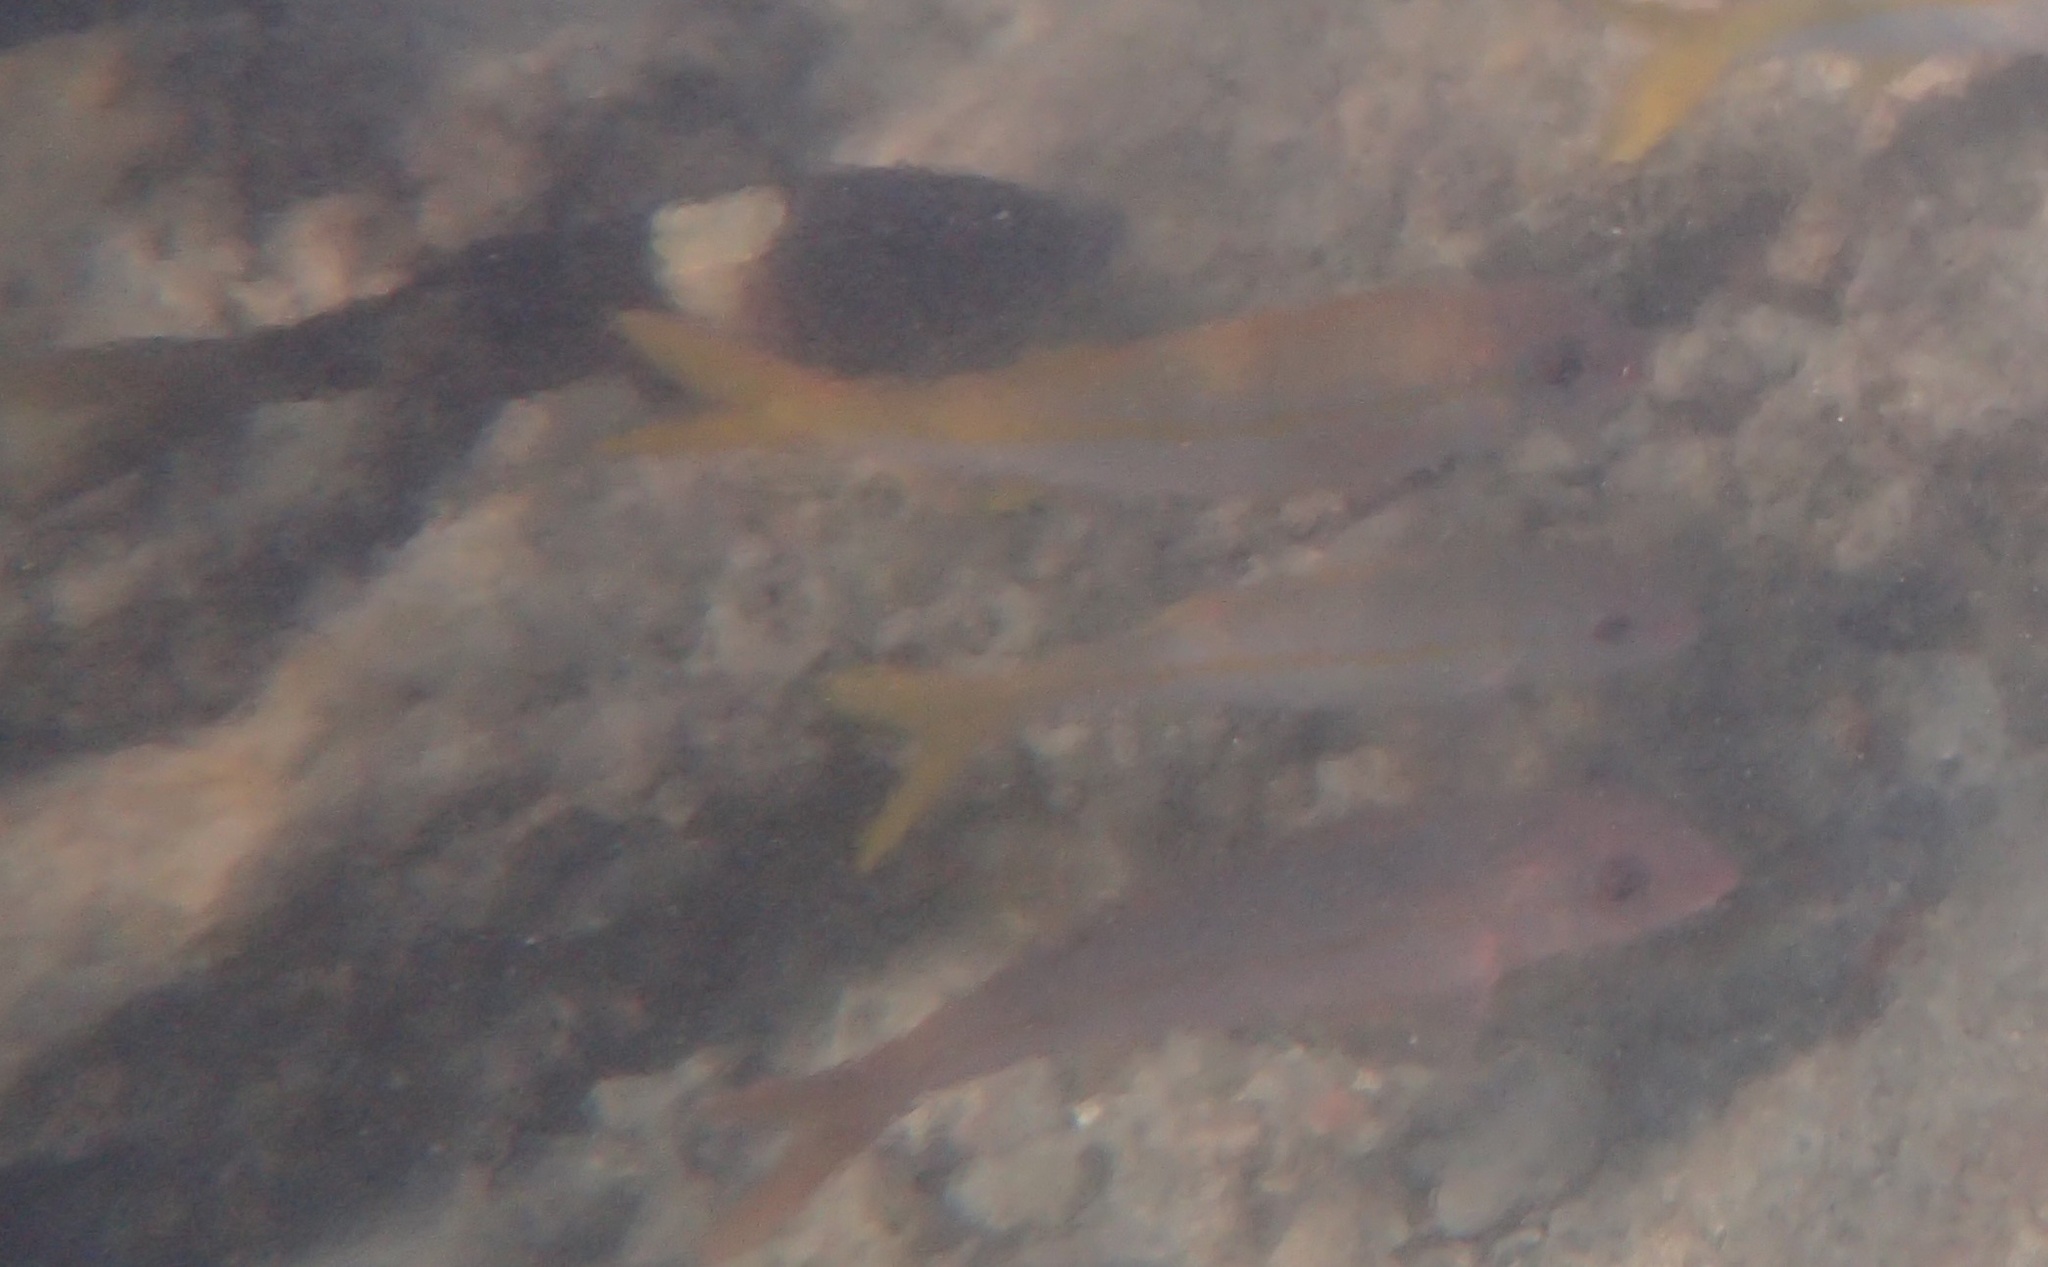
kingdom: Animalia
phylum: Chordata
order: Perciformes
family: Mullidae
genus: Mulloidichthys
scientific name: Mulloidichthys vanicolensis
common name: Yellowfin goatfish
